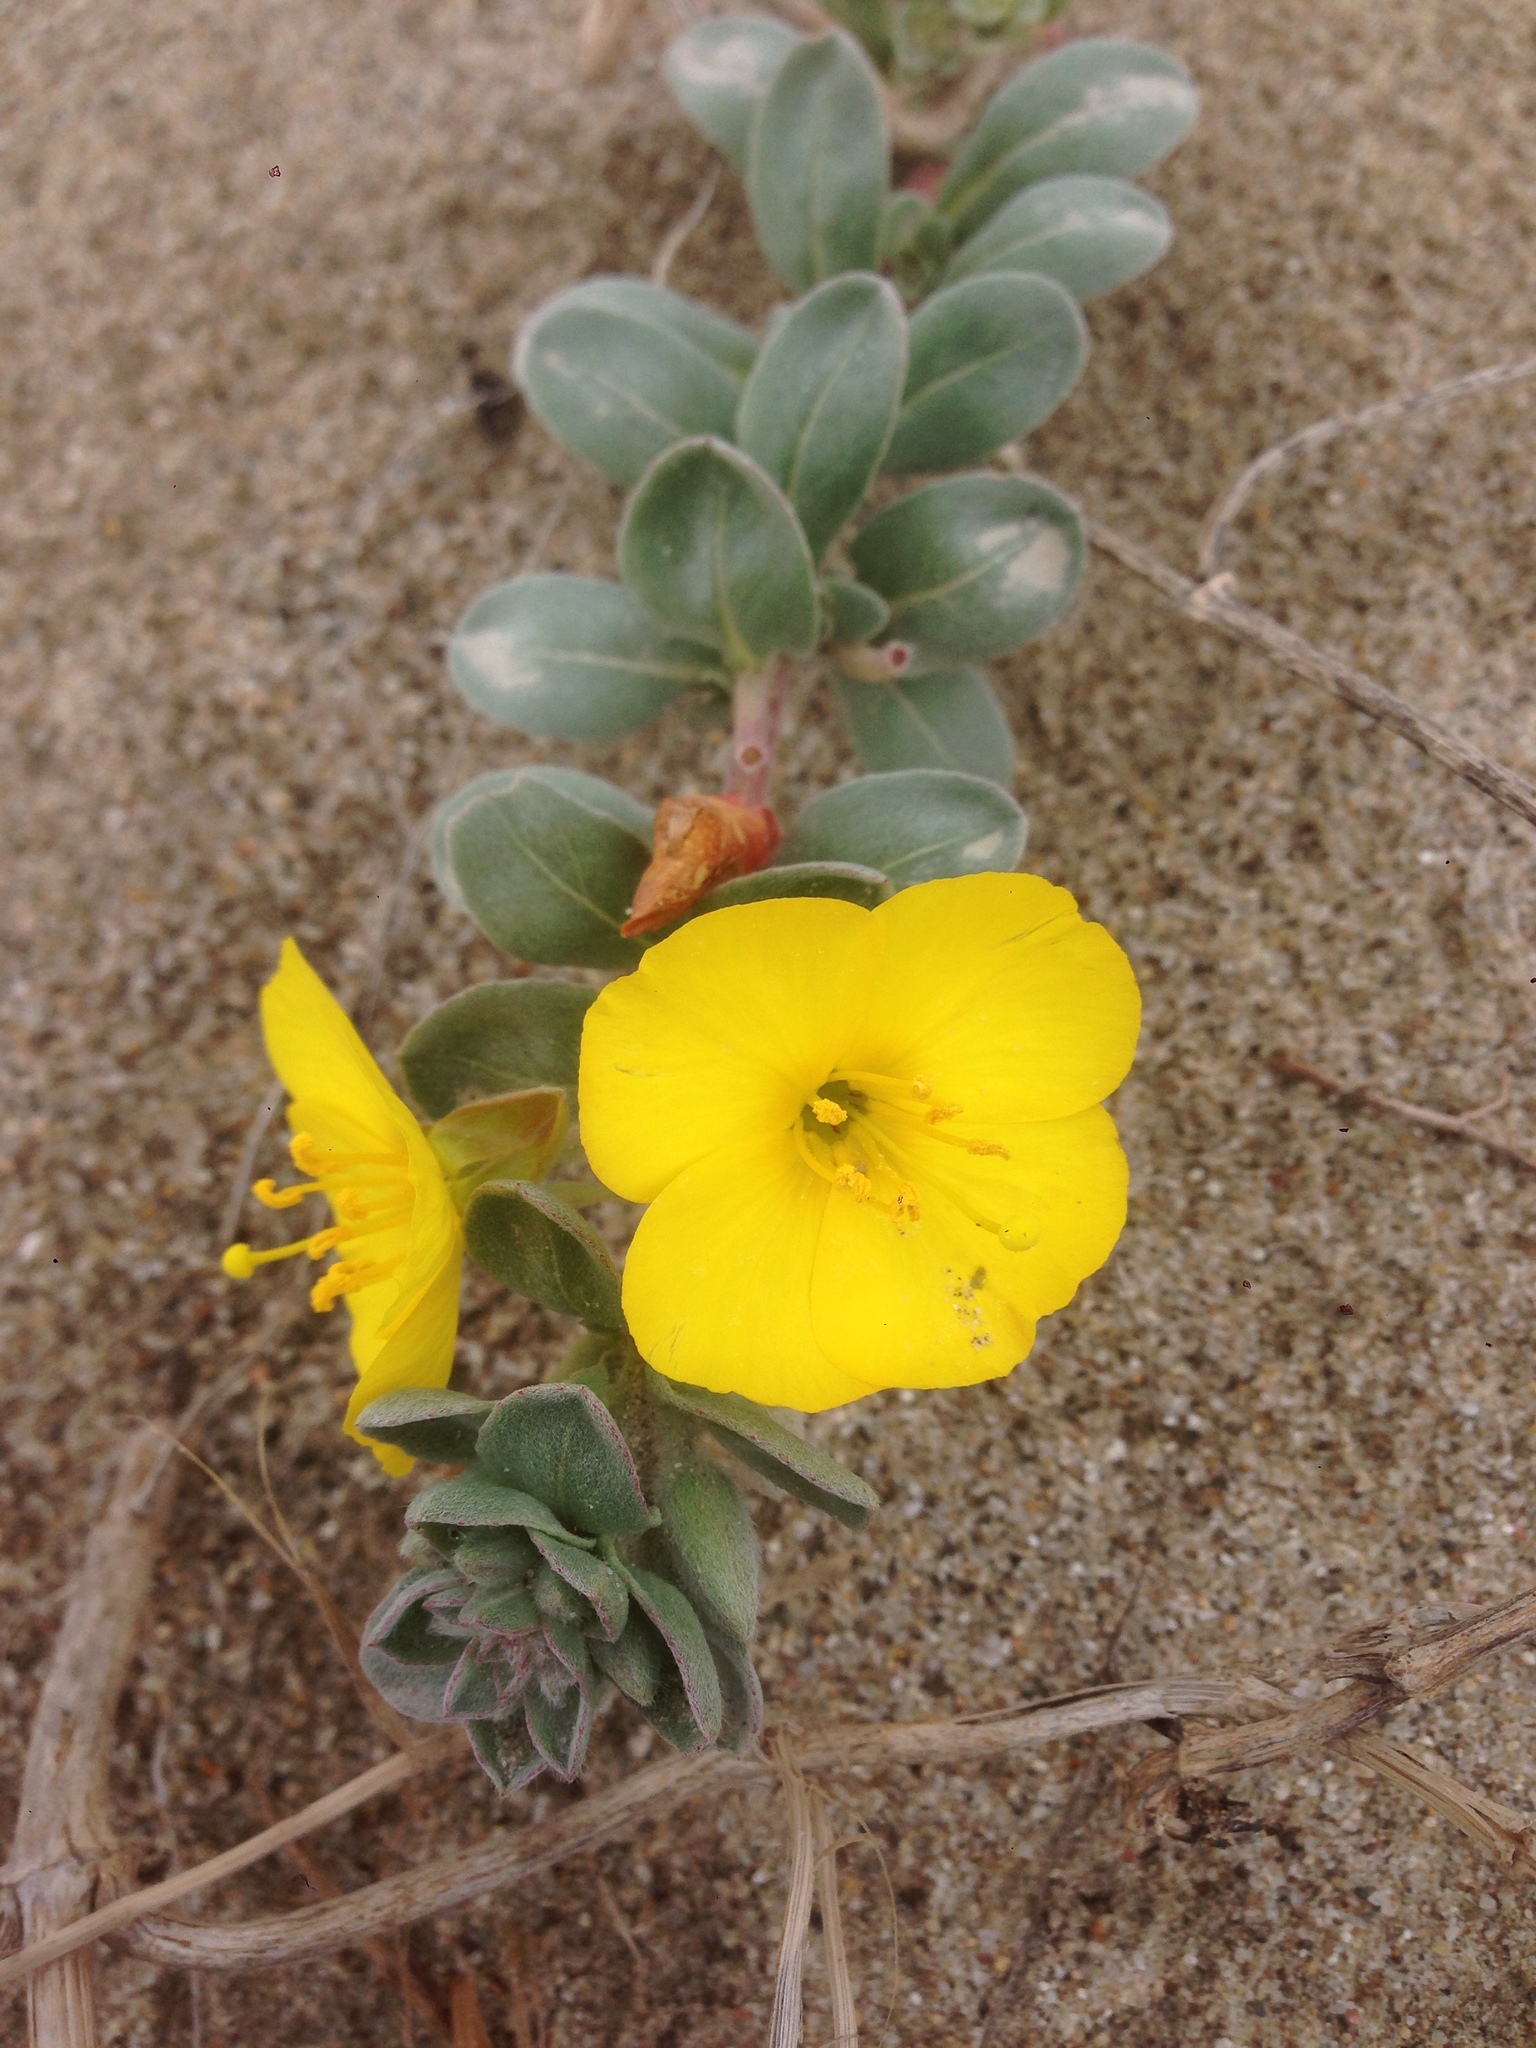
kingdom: Plantae
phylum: Tracheophyta
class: Magnoliopsida
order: Myrtales
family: Onagraceae
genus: Camissoniopsis
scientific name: Camissoniopsis cheiranthifolia
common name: Beach suncup
